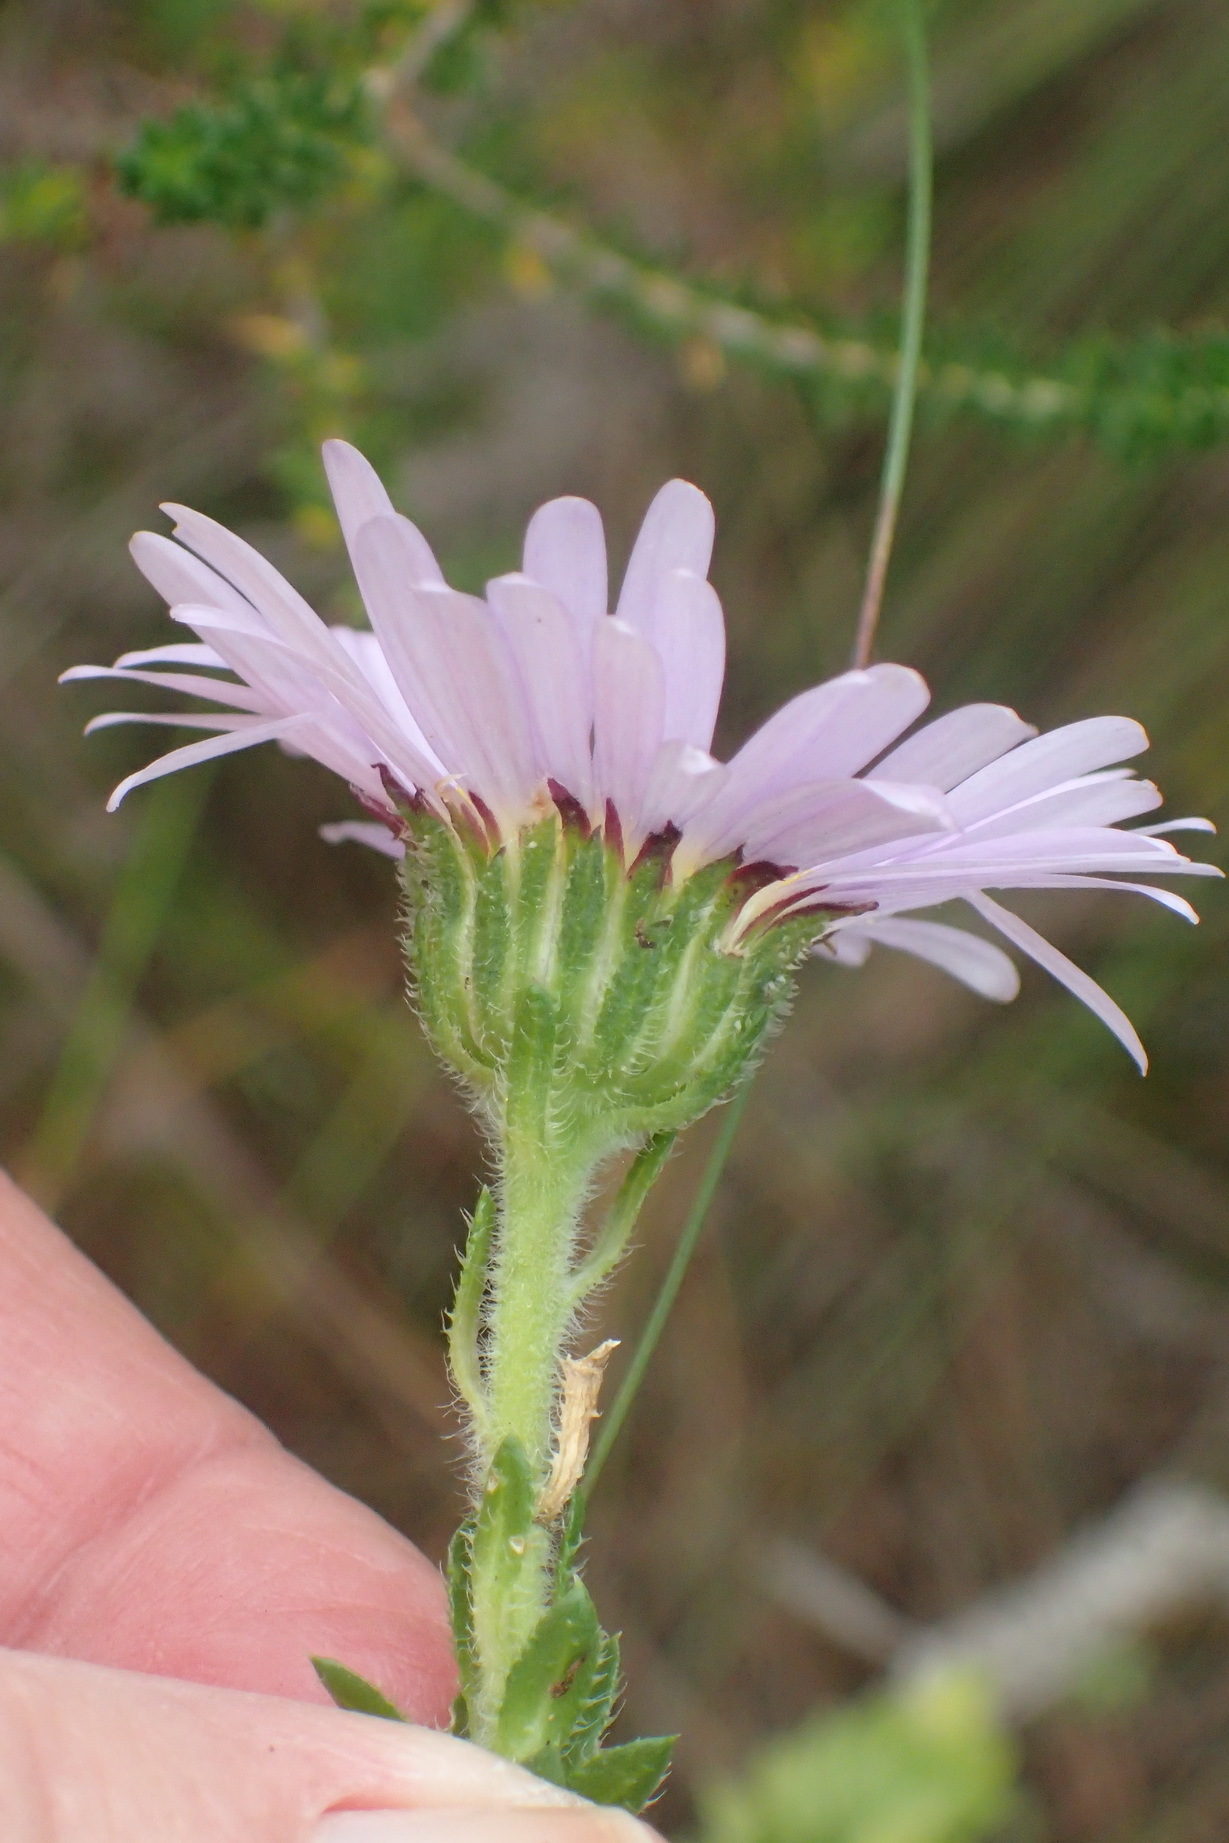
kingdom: Plantae
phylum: Tracheophyta
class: Magnoliopsida
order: Asterales
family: Asteraceae
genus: Felicia
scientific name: Felicia echinata
